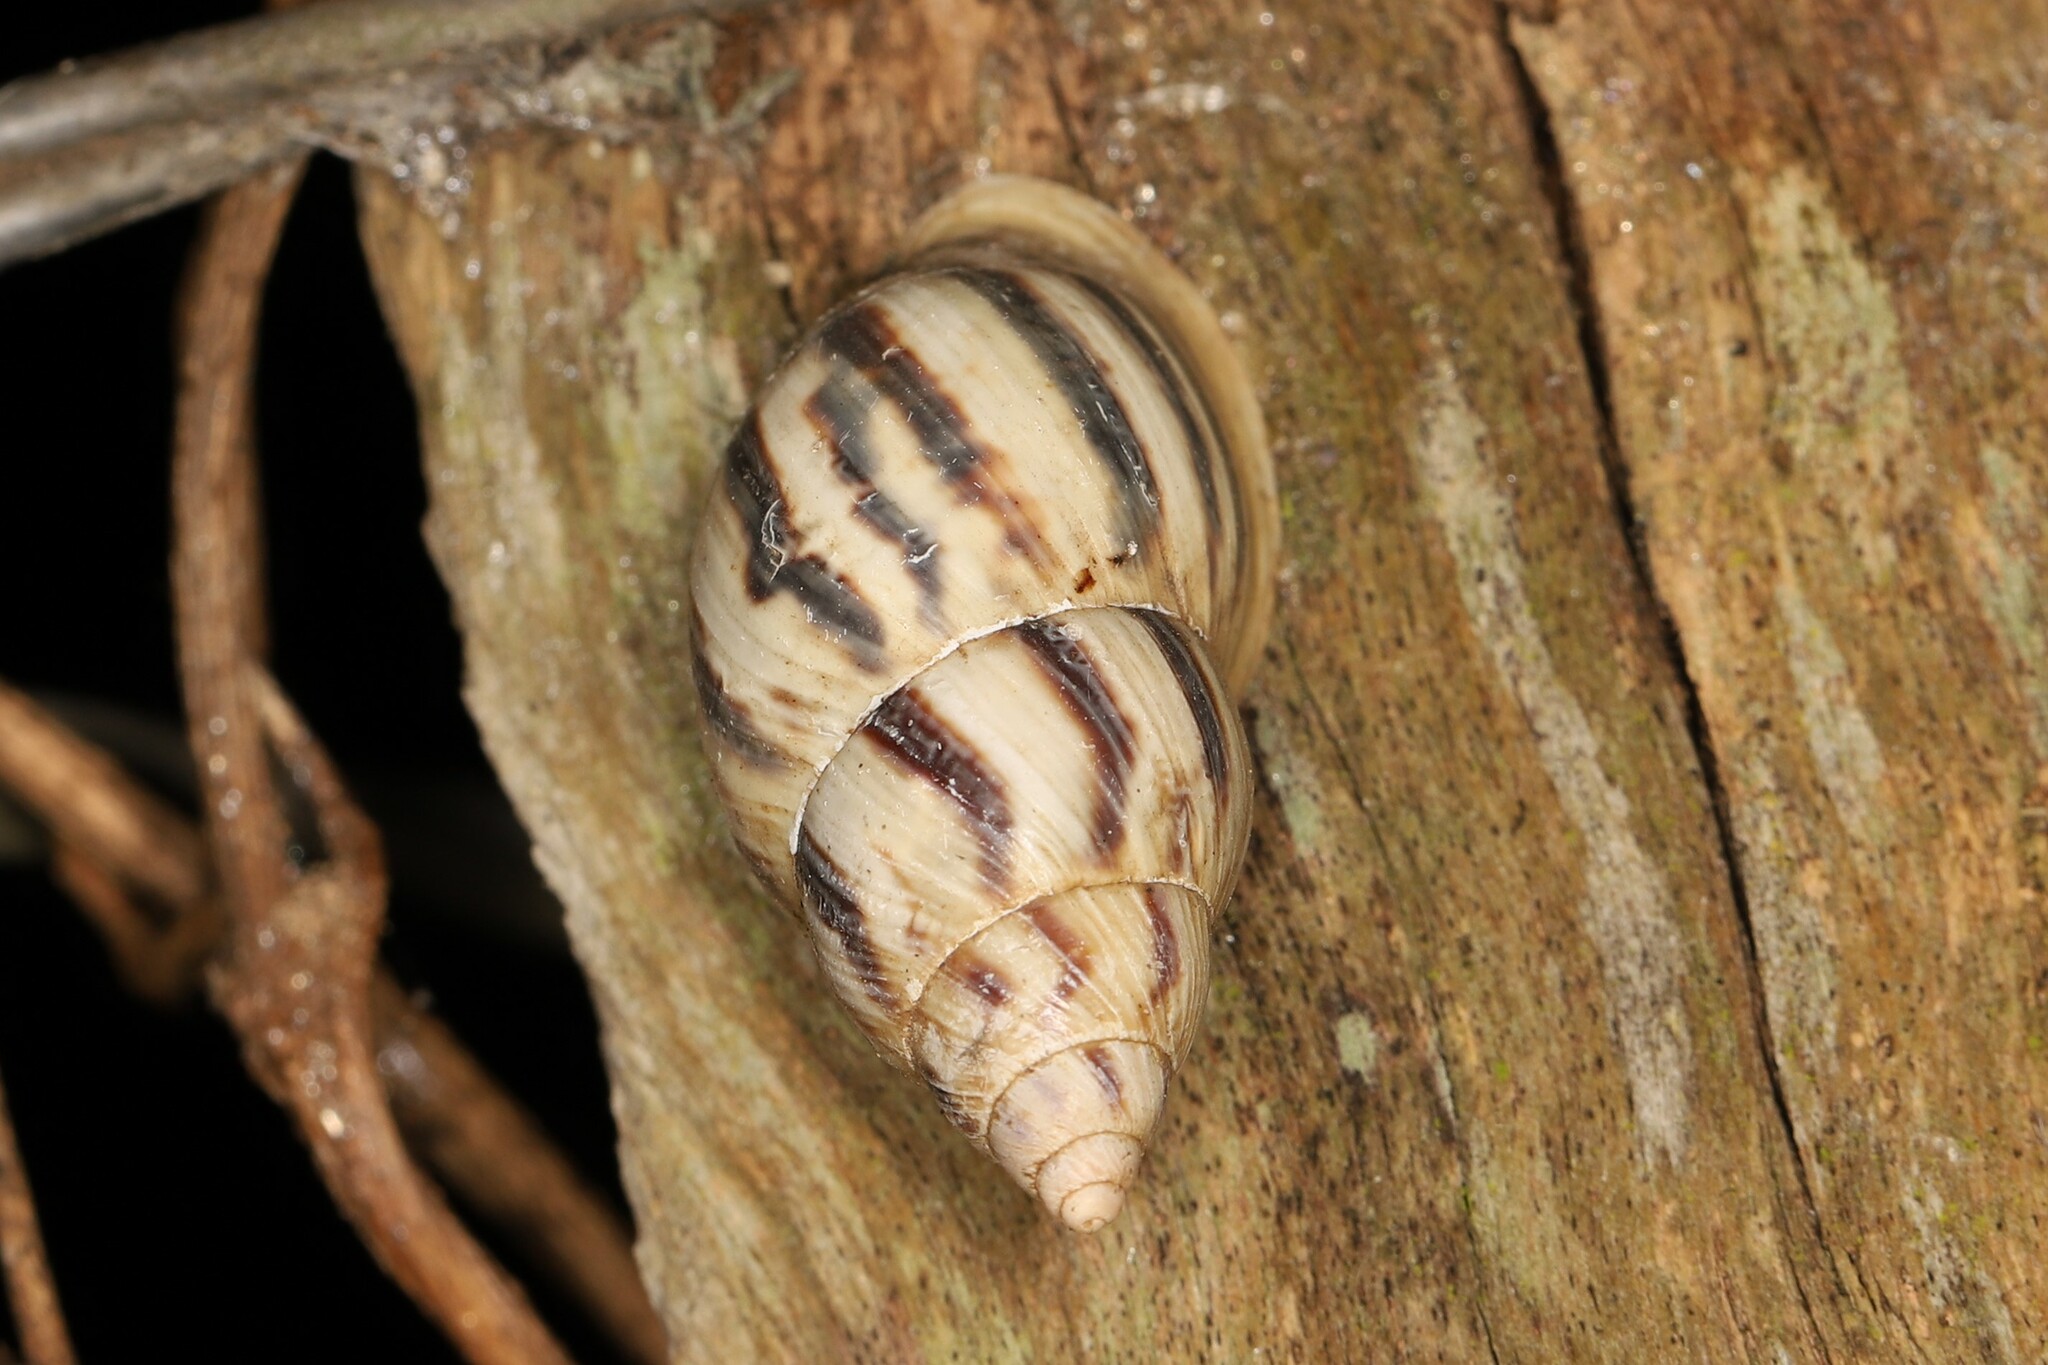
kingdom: Animalia
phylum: Mollusca
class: Gastropoda
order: Stylommatophora
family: Bulimulidae
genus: Drymaeus
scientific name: Drymaeus convexus
